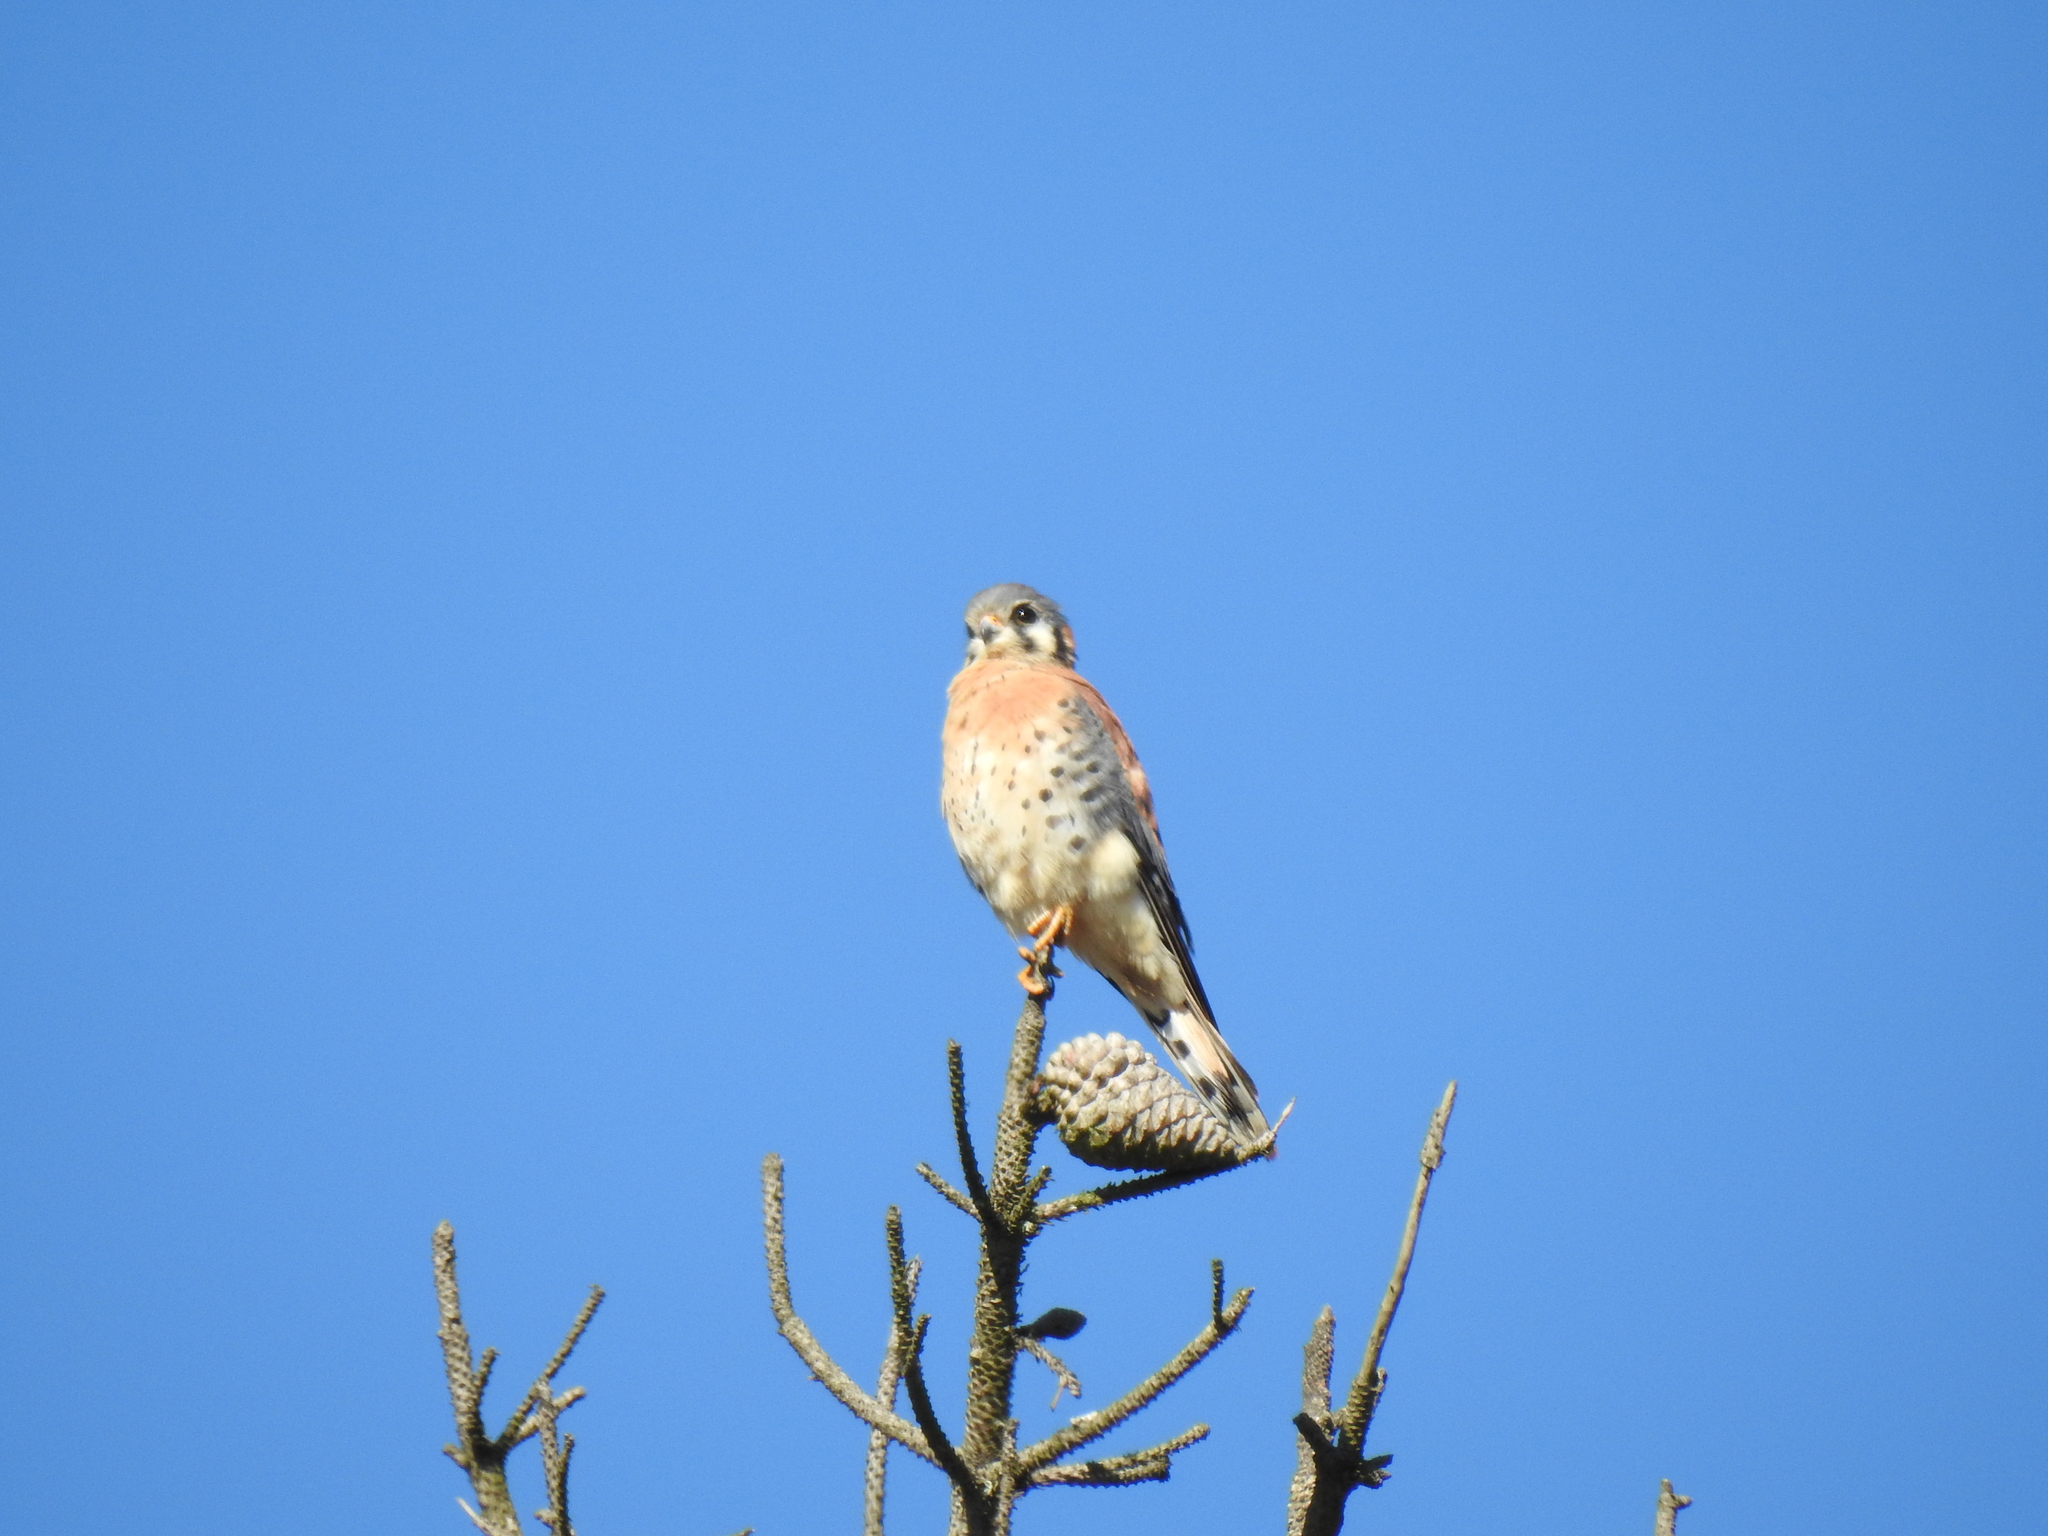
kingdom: Animalia
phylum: Chordata
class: Aves
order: Falconiformes
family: Falconidae
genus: Falco
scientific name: Falco sparverius
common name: American kestrel
